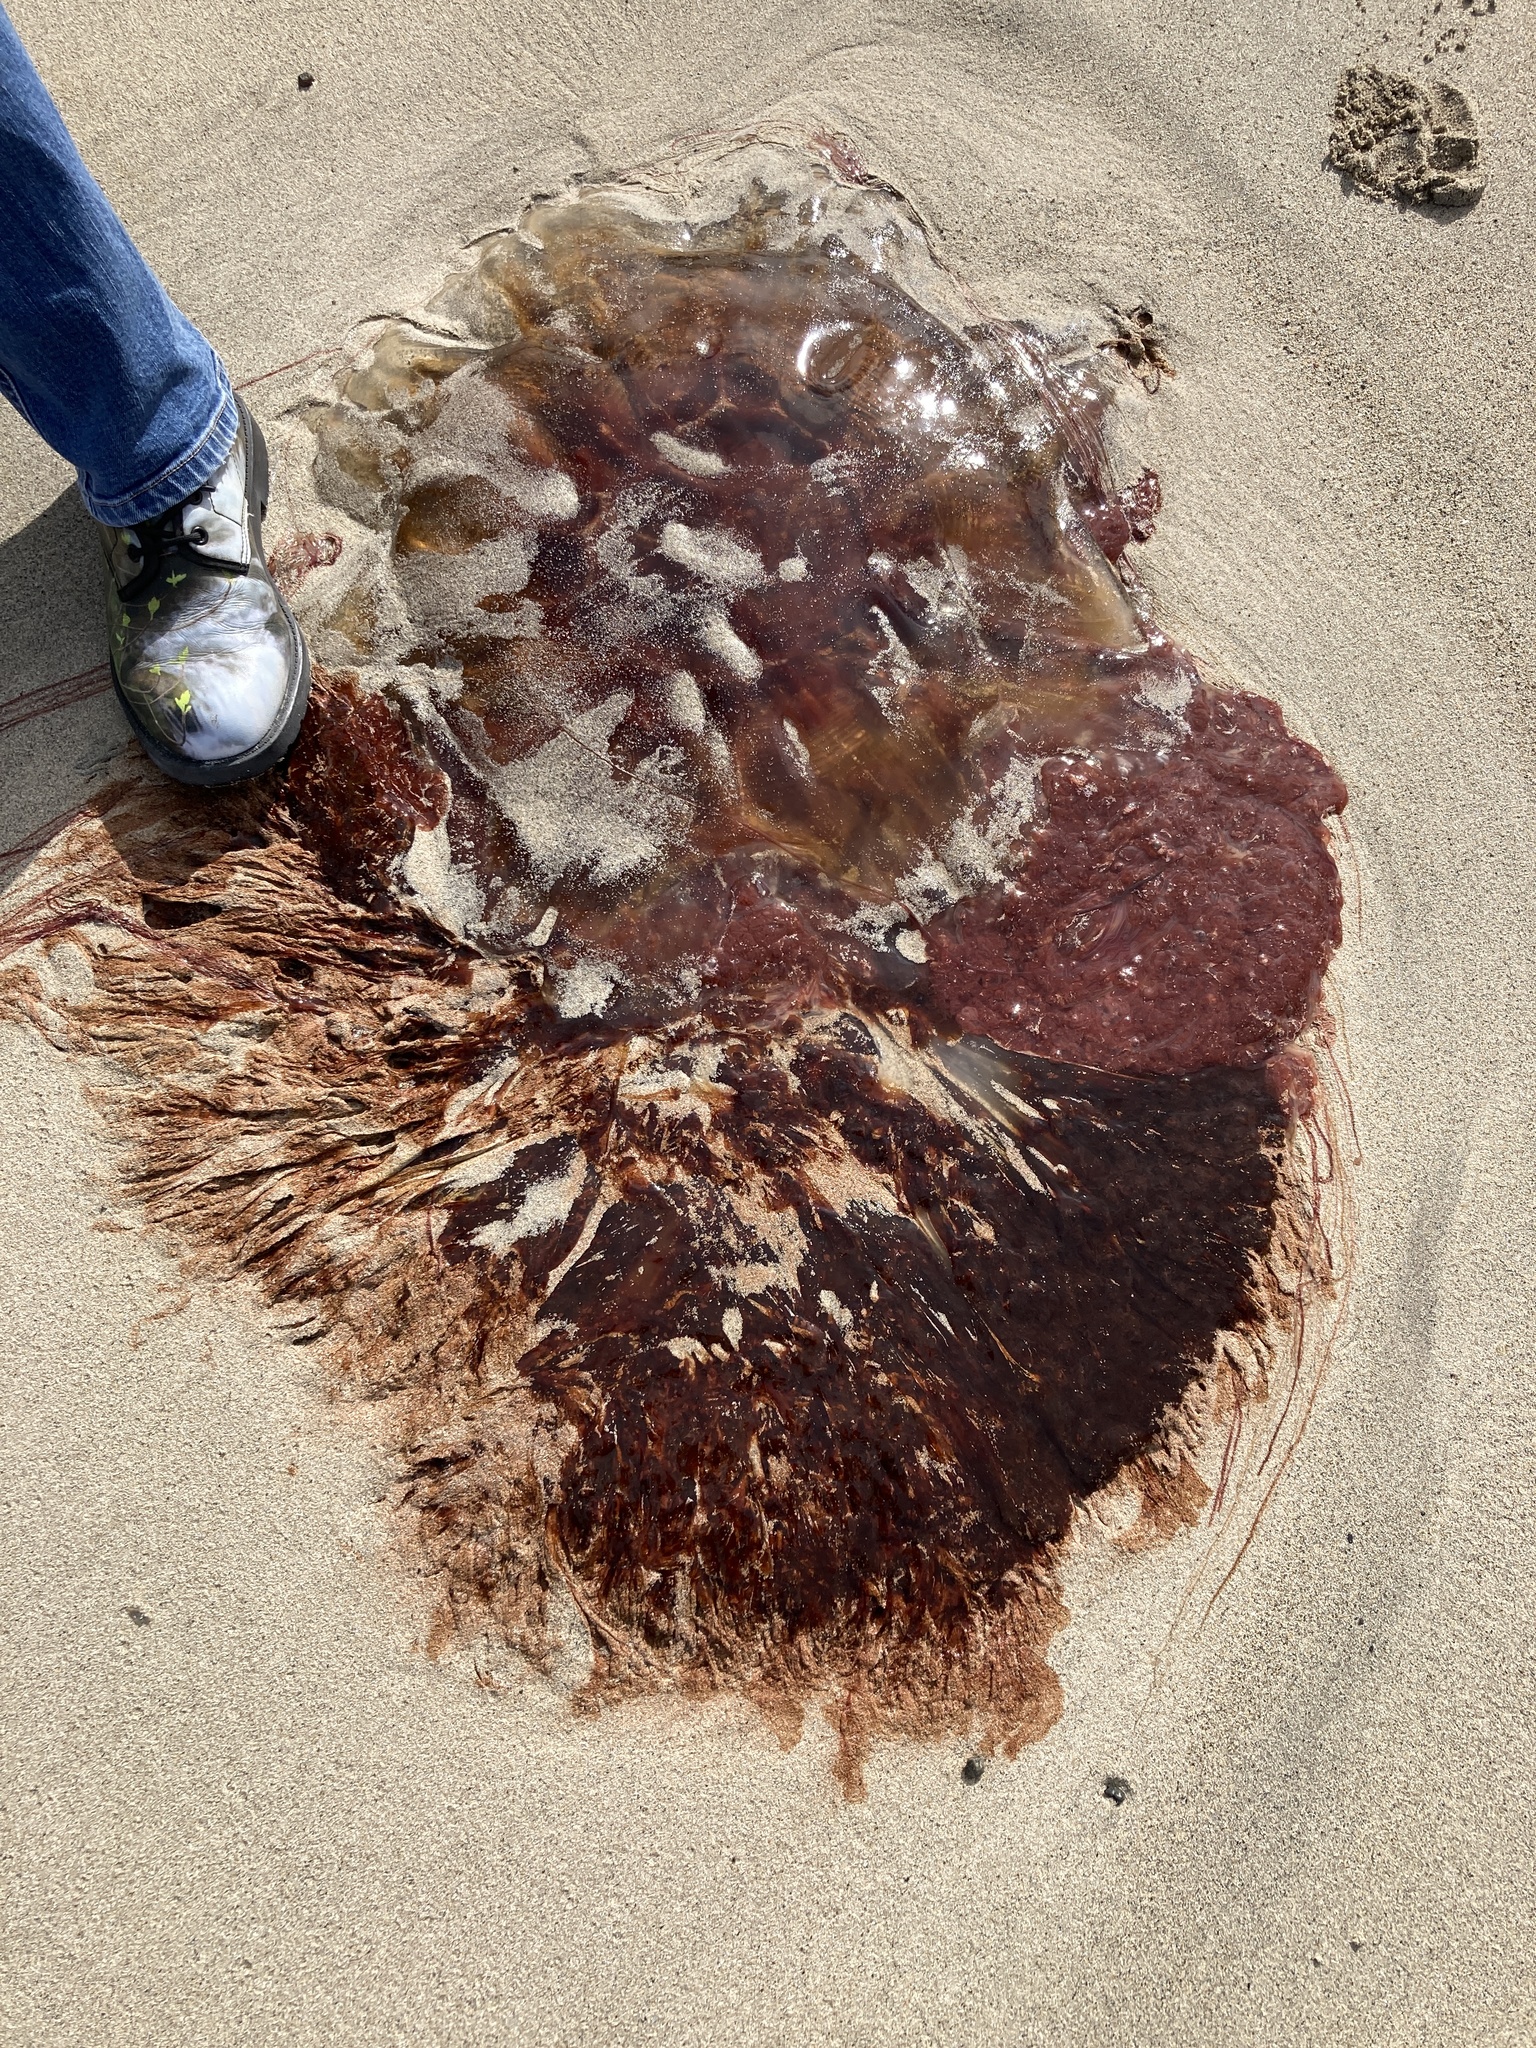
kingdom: Animalia
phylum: Cnidaria
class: Scyphozoa
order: Semaeostomeae
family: Cyaneidae
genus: Cyanea
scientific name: Cyanea capillata
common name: Lion's mane jellyfish
